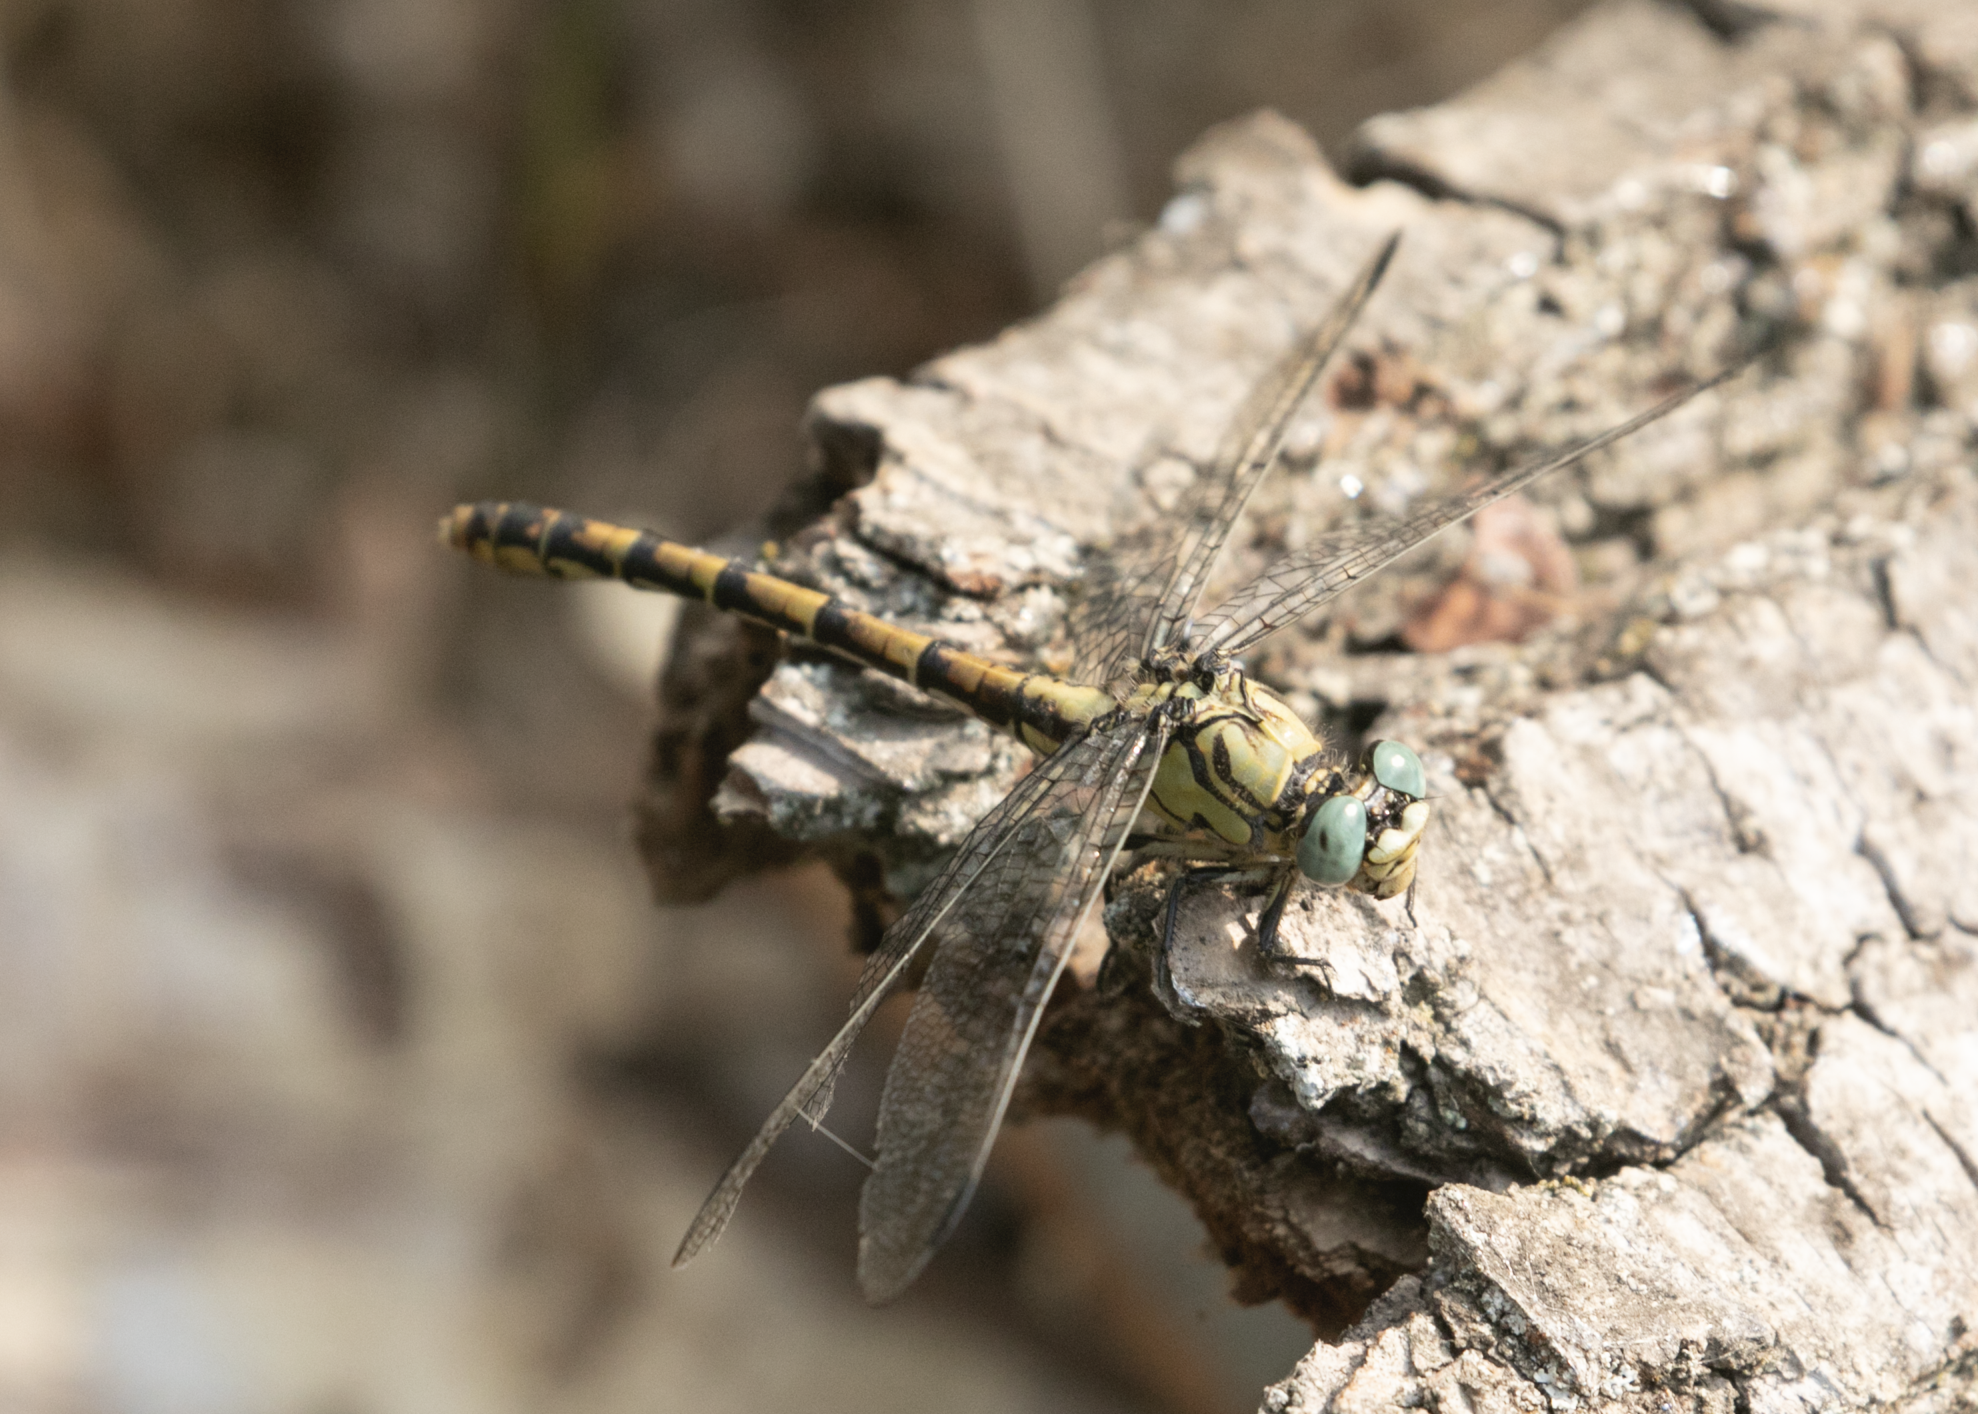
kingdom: Animalia
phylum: Arthropoda
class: Insecta
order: Odonata
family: Gomphidae
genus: Onychogomphus
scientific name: Onychogomphus forcipatus
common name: Small pincertail
